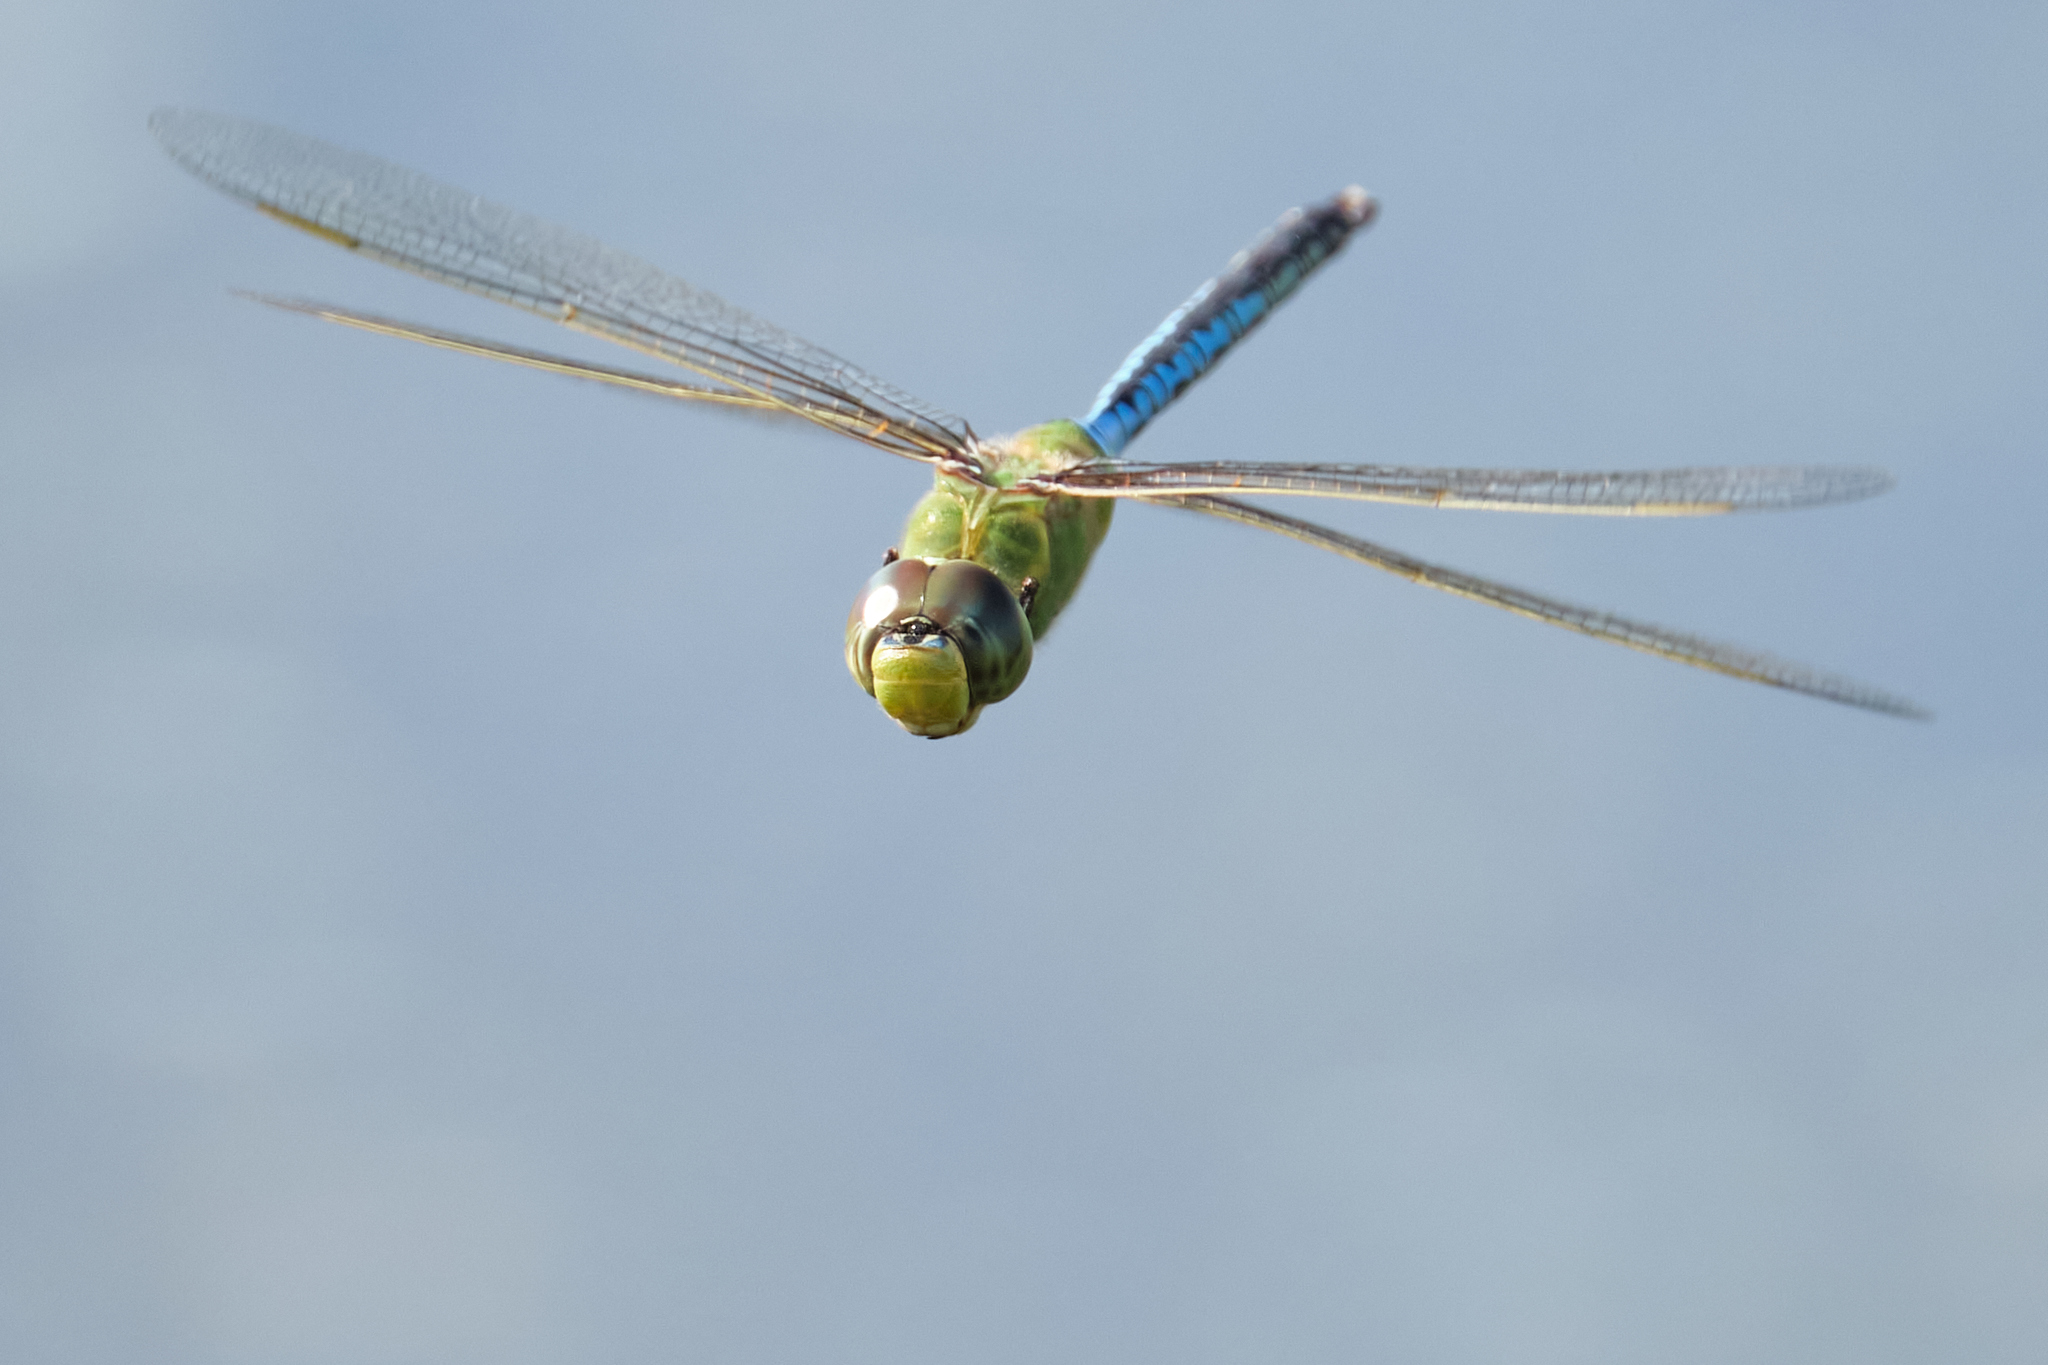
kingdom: Animalia
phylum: Arthropoda
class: Insecta
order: Odonata
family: Aeshnidae
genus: Anax
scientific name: Anax junius
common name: Common green darner
